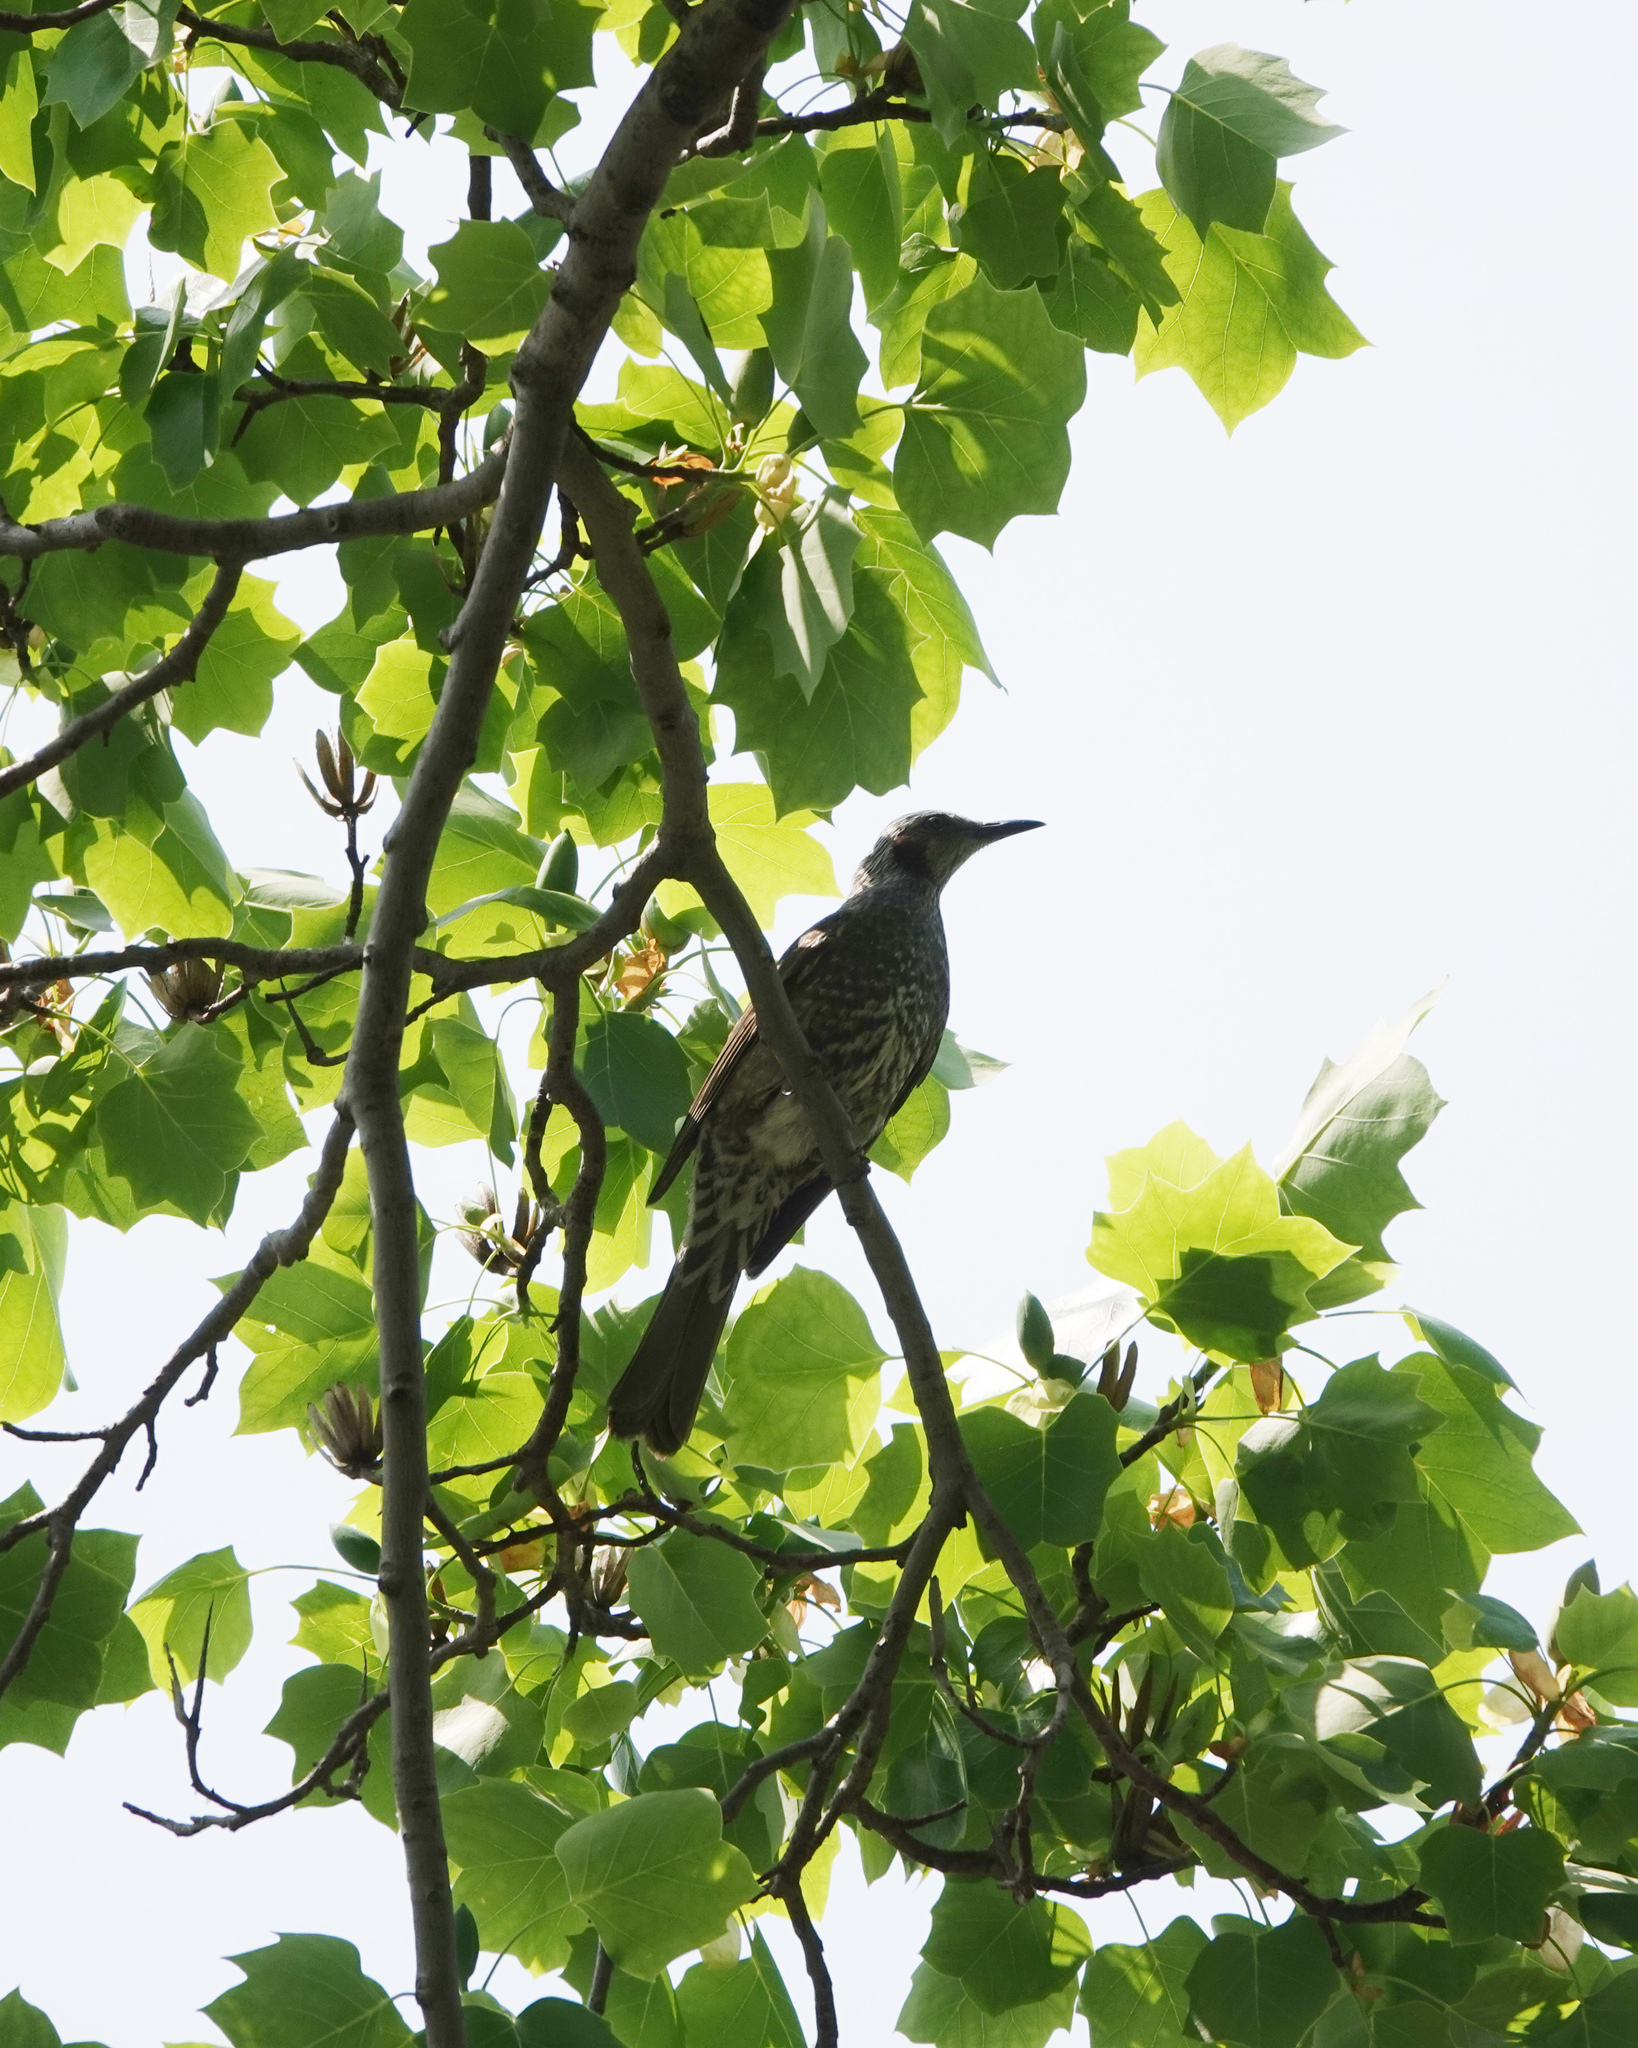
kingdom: Animalia
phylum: Chordata
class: Aves
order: Passeriformes
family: Pycnonotidae
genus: Hypsipetes
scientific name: Hypsipetes amaurotis
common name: Brown-eared bulbul
